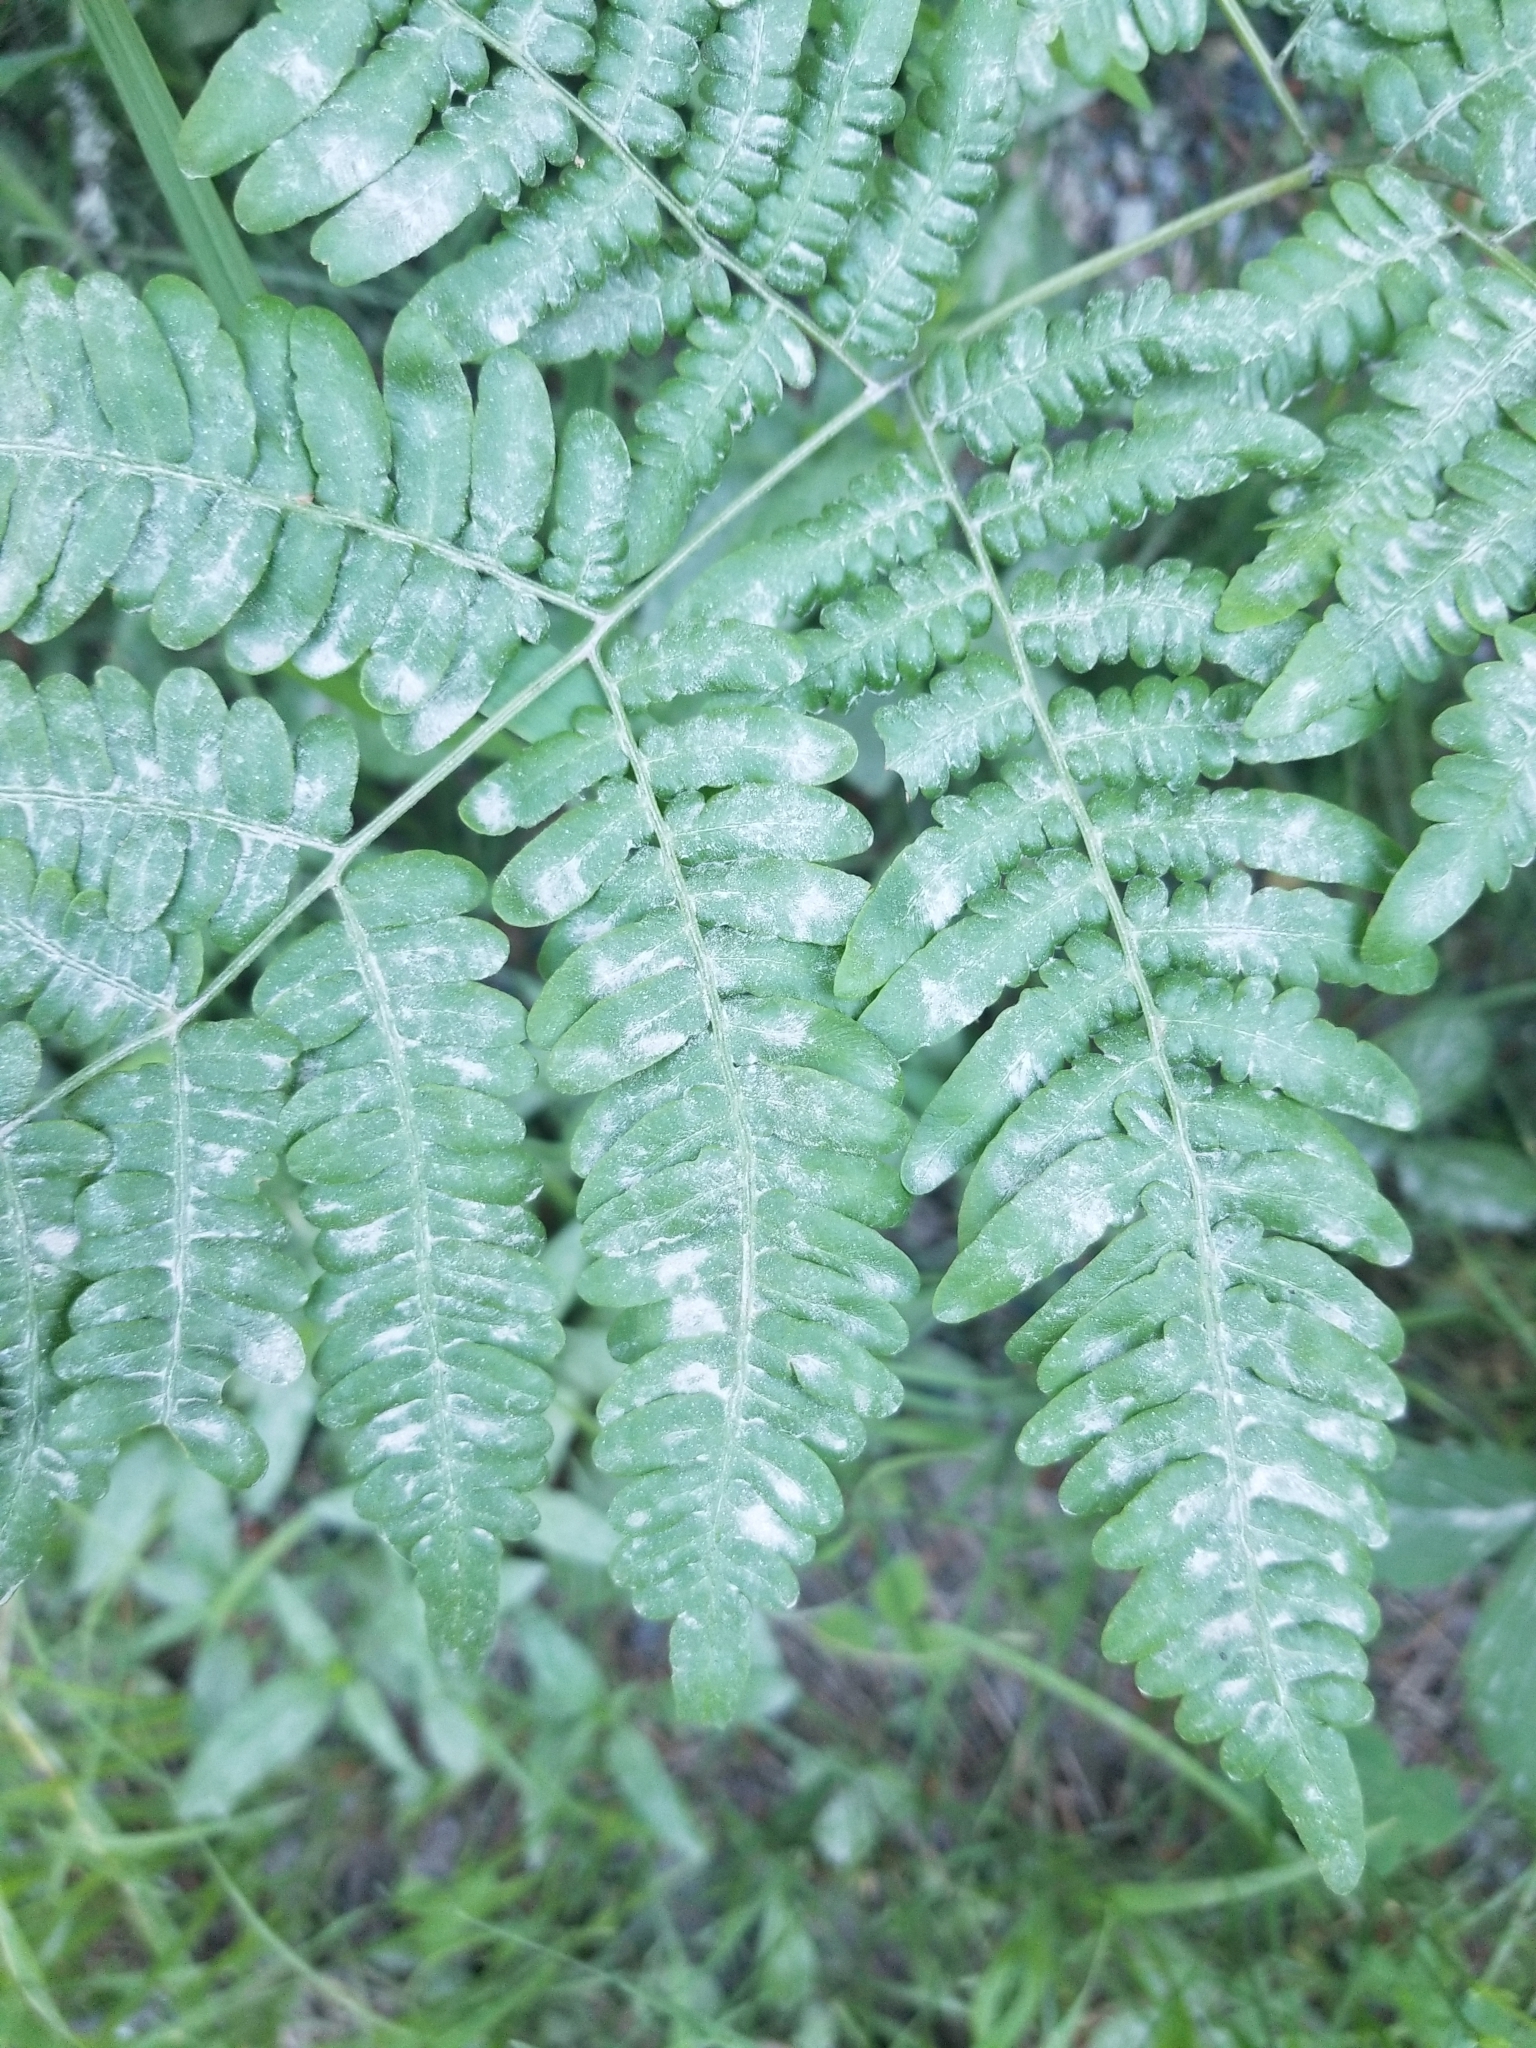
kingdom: Plantae
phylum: Tracheophyta
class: Polypodiopsida
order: Polypodiales
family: Dennstaedtiaceae
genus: Pteridium
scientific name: Pteridium aquilinum
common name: Bracken
